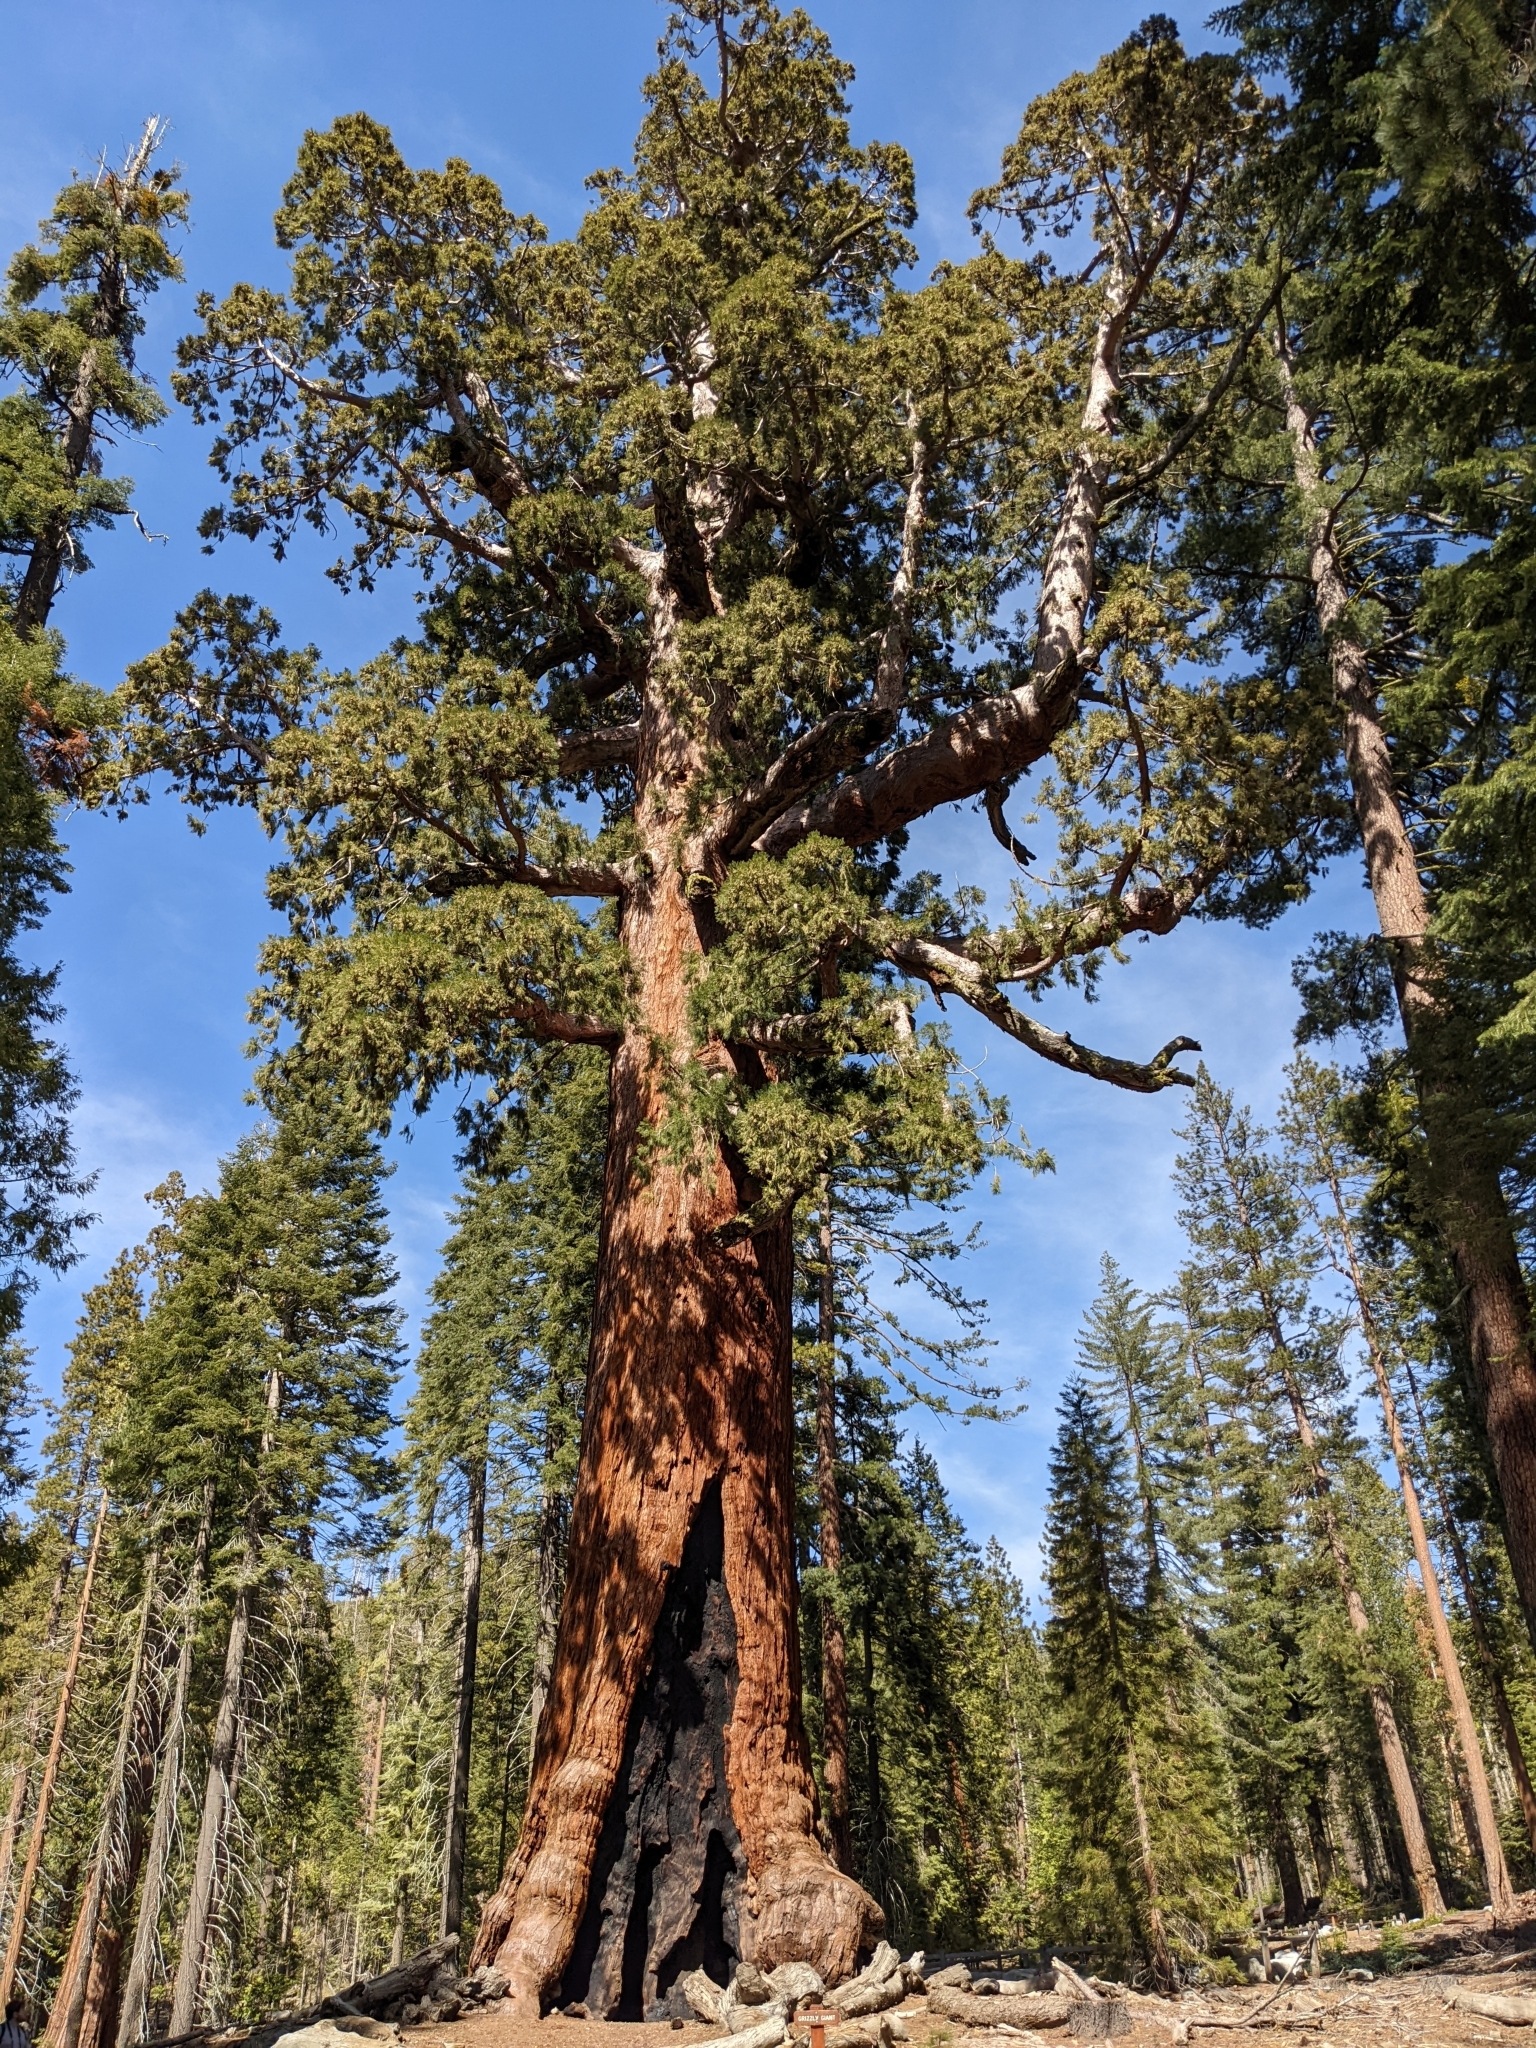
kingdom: Plantae
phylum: Tracheophyta
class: Pinopsida
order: Pinales
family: Cupressaceae
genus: Sequoiadendron
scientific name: Sequoiadendron giganteum
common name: Wellingtonia
